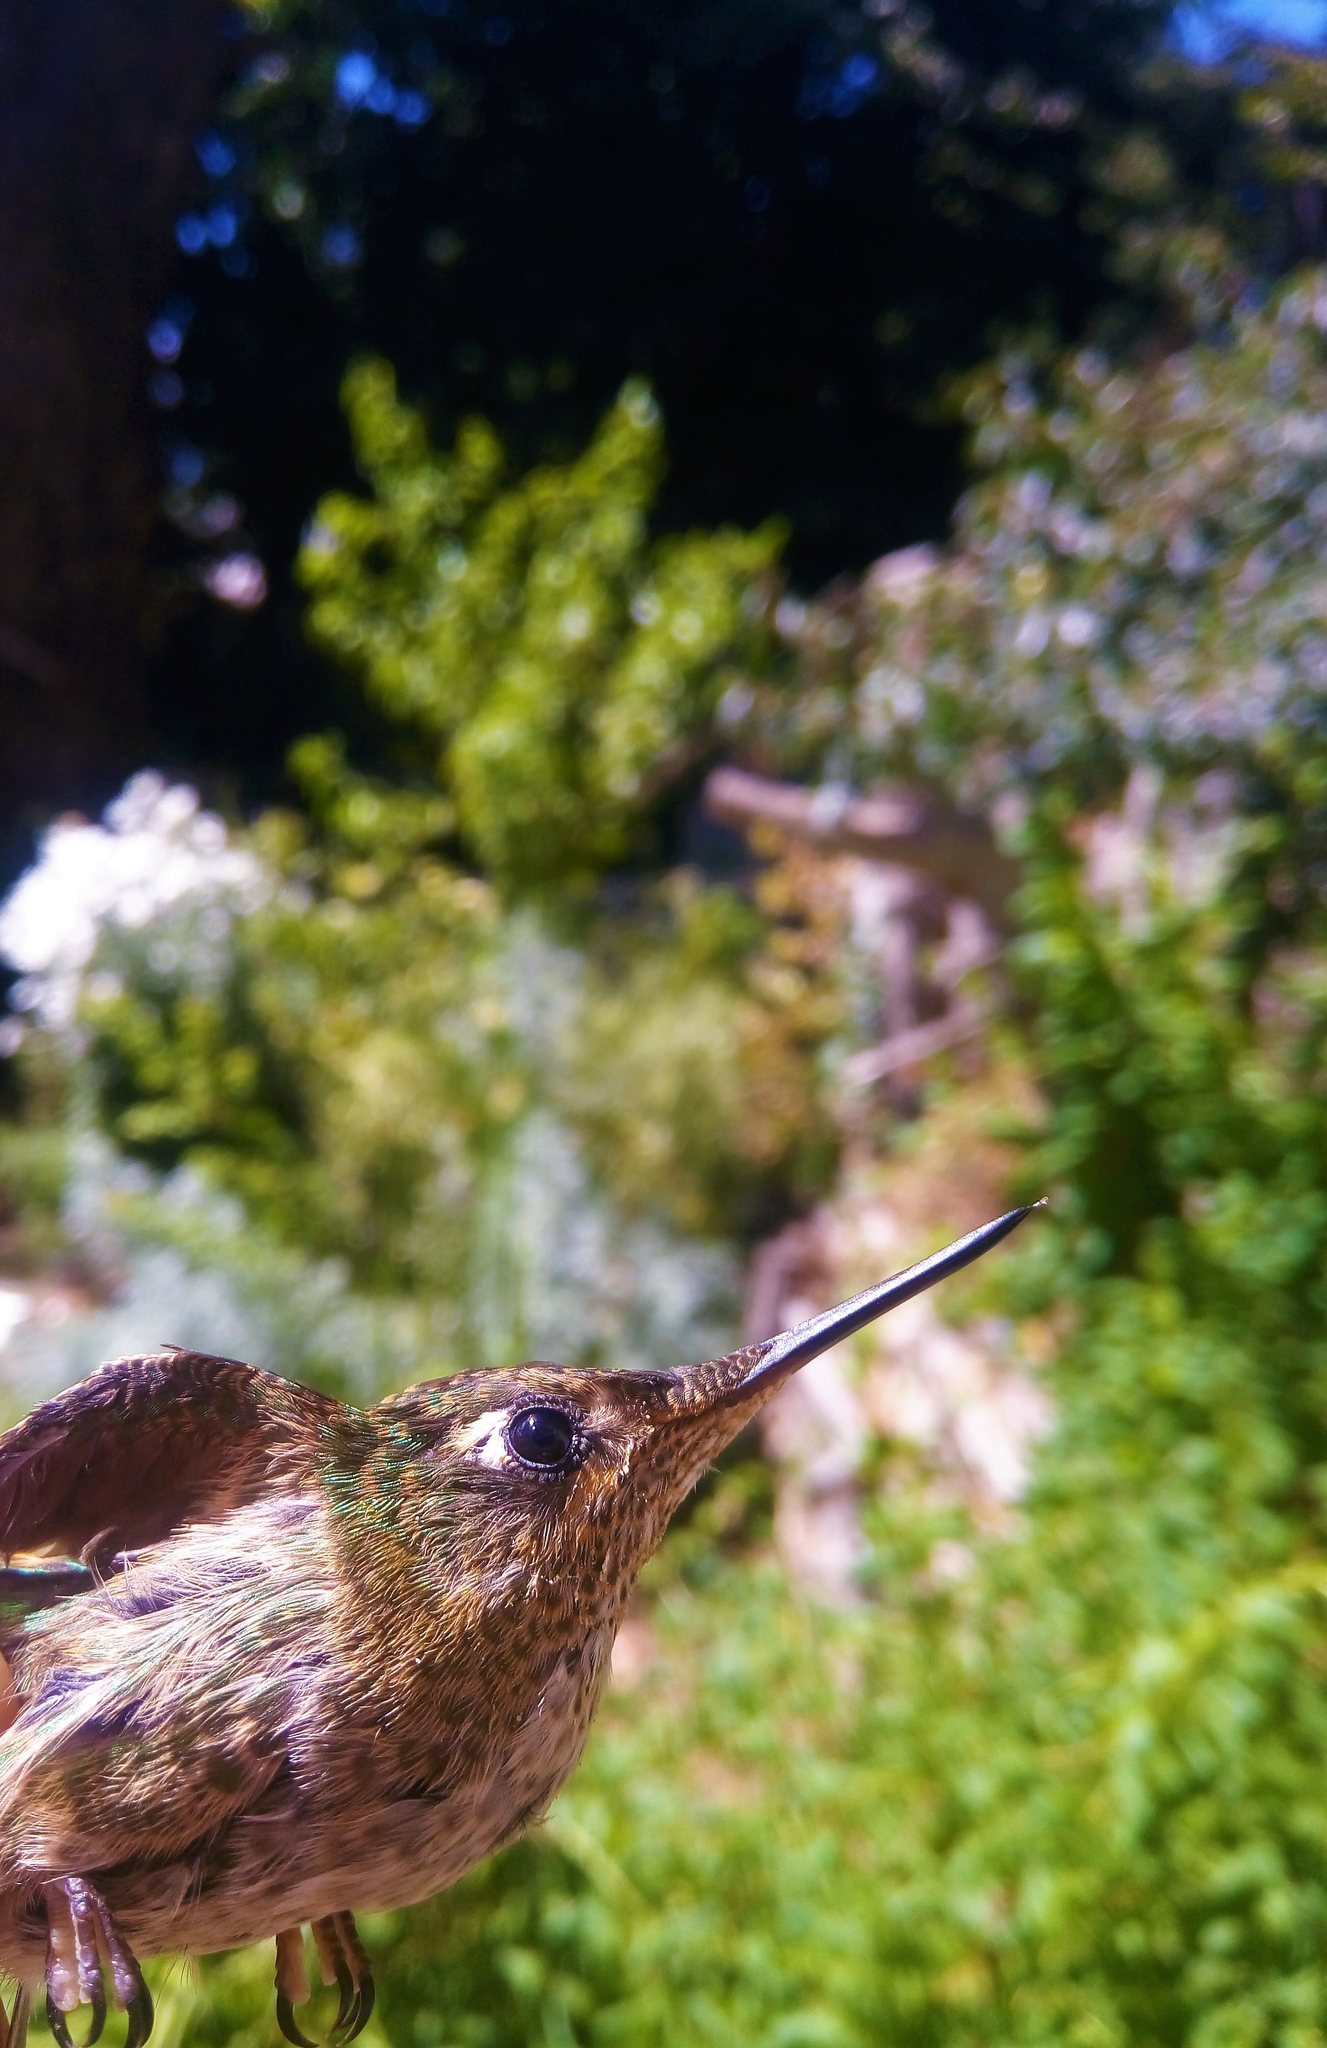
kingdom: Animalia
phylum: Chordata
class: Aves
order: Apodiformes
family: Trochilidae
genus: Sephanoides
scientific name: Sephanoides sephaniodes
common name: Green-backed firecrown
